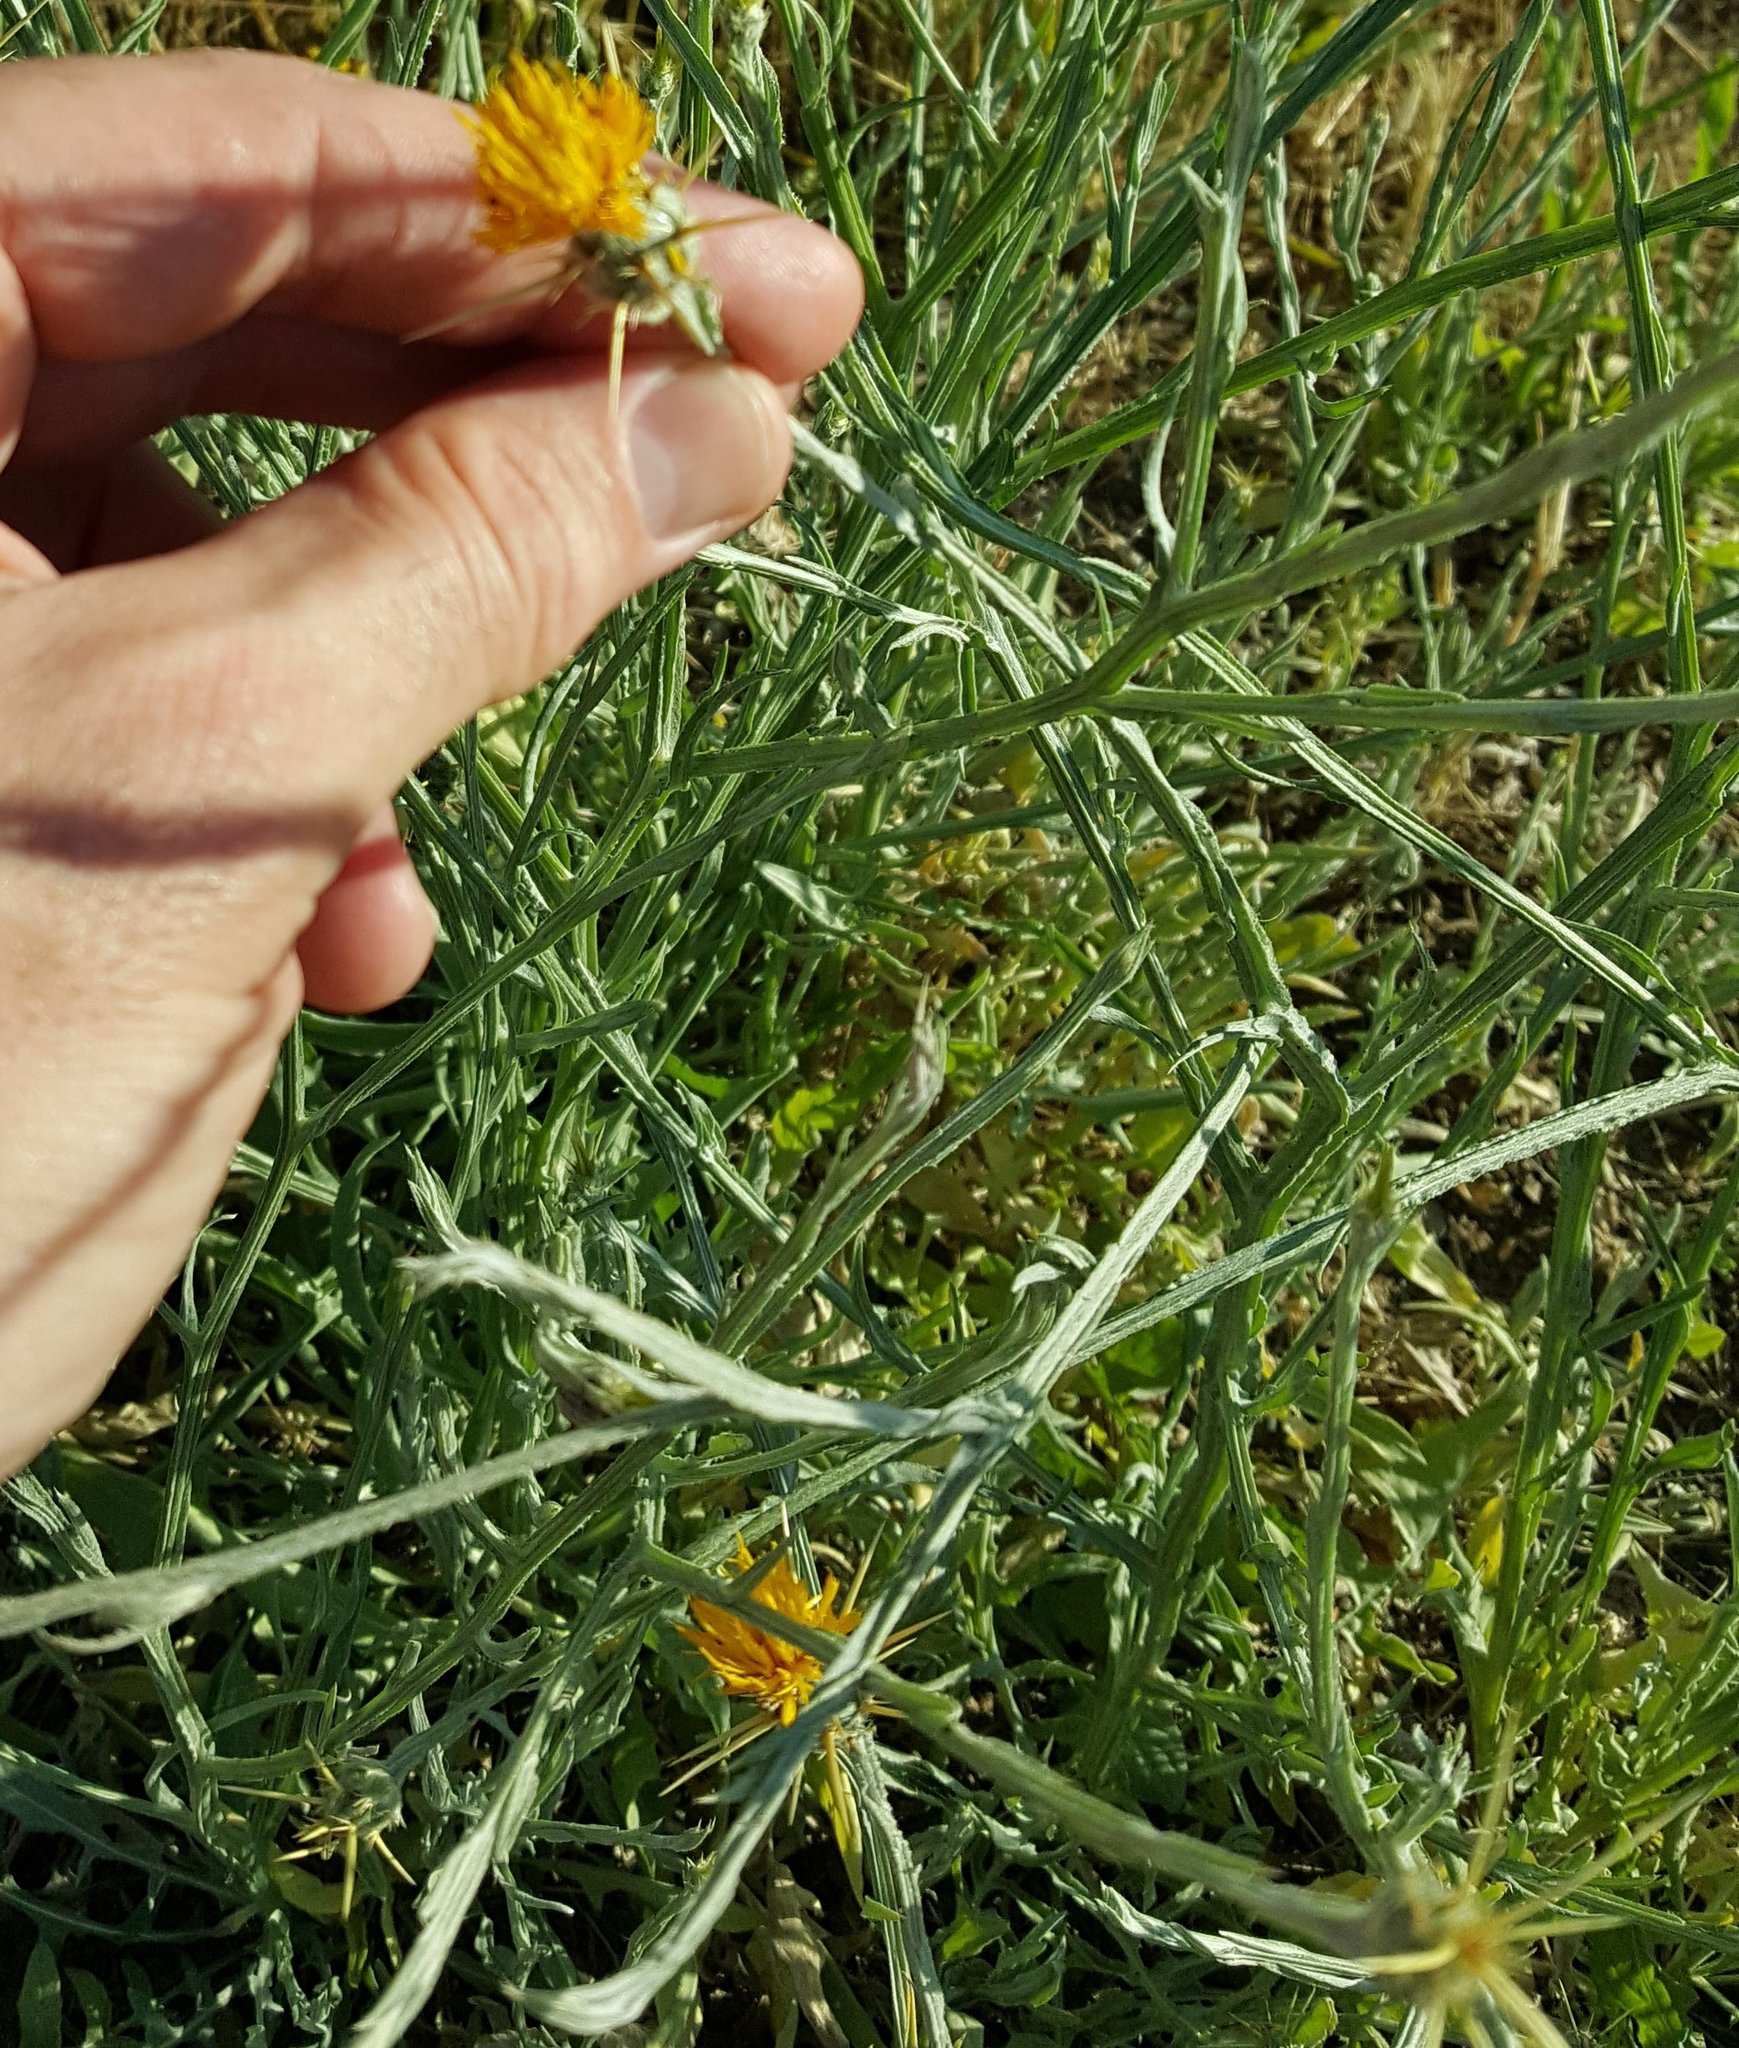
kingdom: Plantae
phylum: Tracheophyta
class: Magnoliopsida
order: Asterales
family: Asteraceae
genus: Centaurea
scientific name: Centaurea solstitialis
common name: Yellow star-thistle
